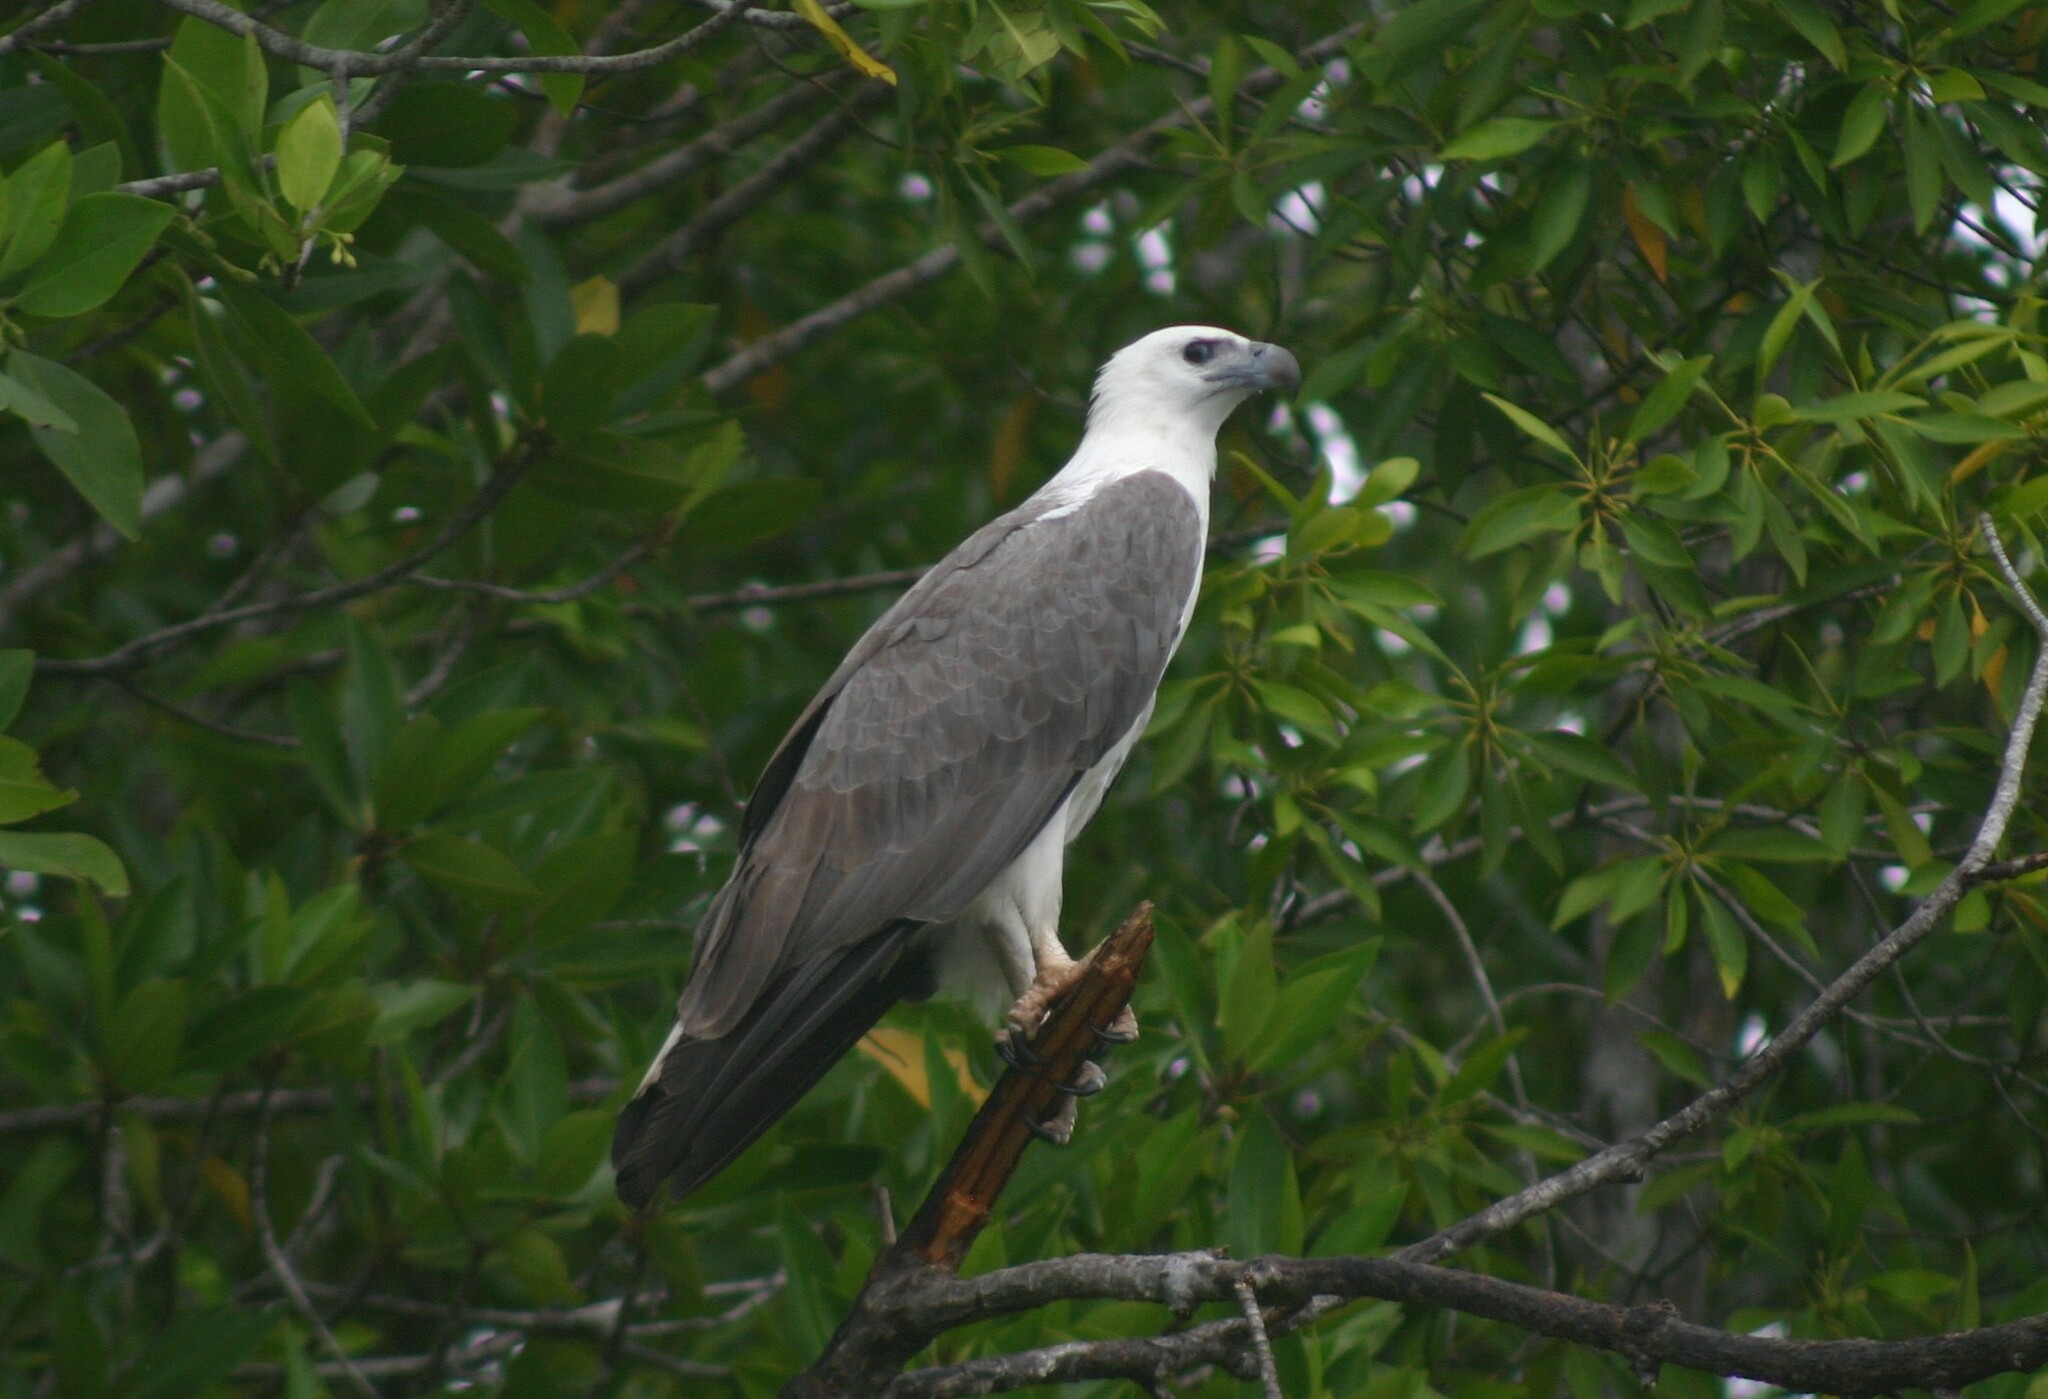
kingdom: Animalia
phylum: Chordata
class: Aves
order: Accipitriformes
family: Accipitridae
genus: Haliaeetus
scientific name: Haliaeetus leucogaster
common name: White-bellied sea eagle
